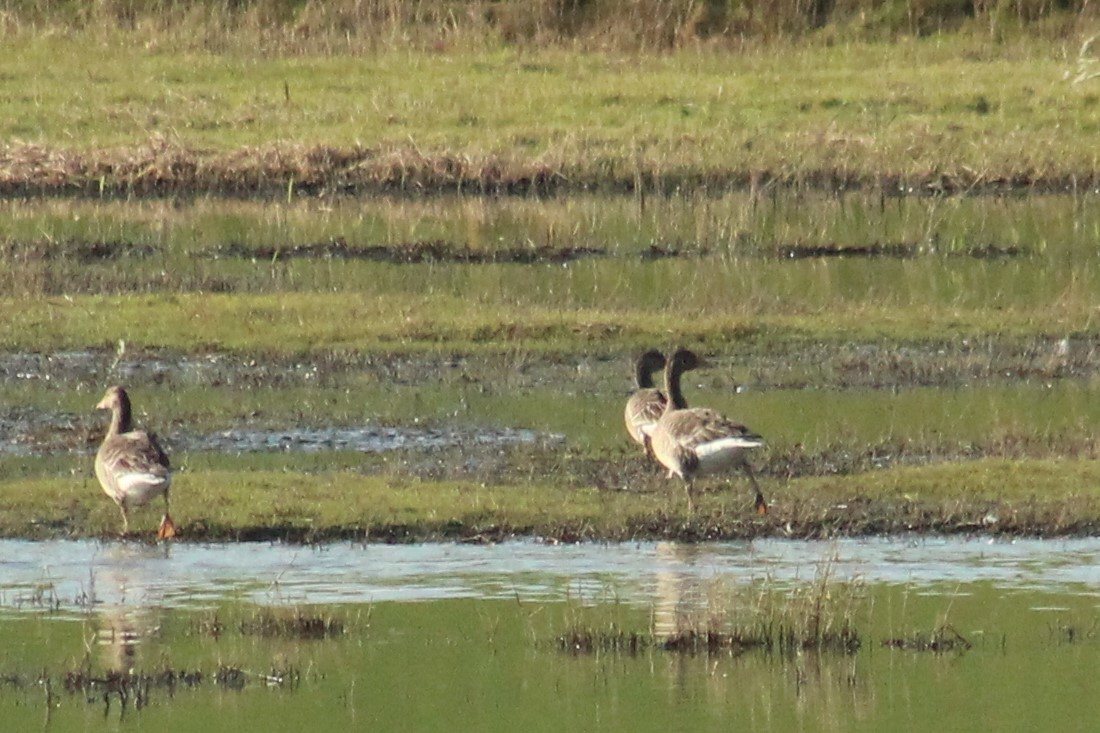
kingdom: Animalia
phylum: Chordata
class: Aves
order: Anseriformes
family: Anatidae
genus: Anser
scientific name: Anser anser
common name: Greylag goose
